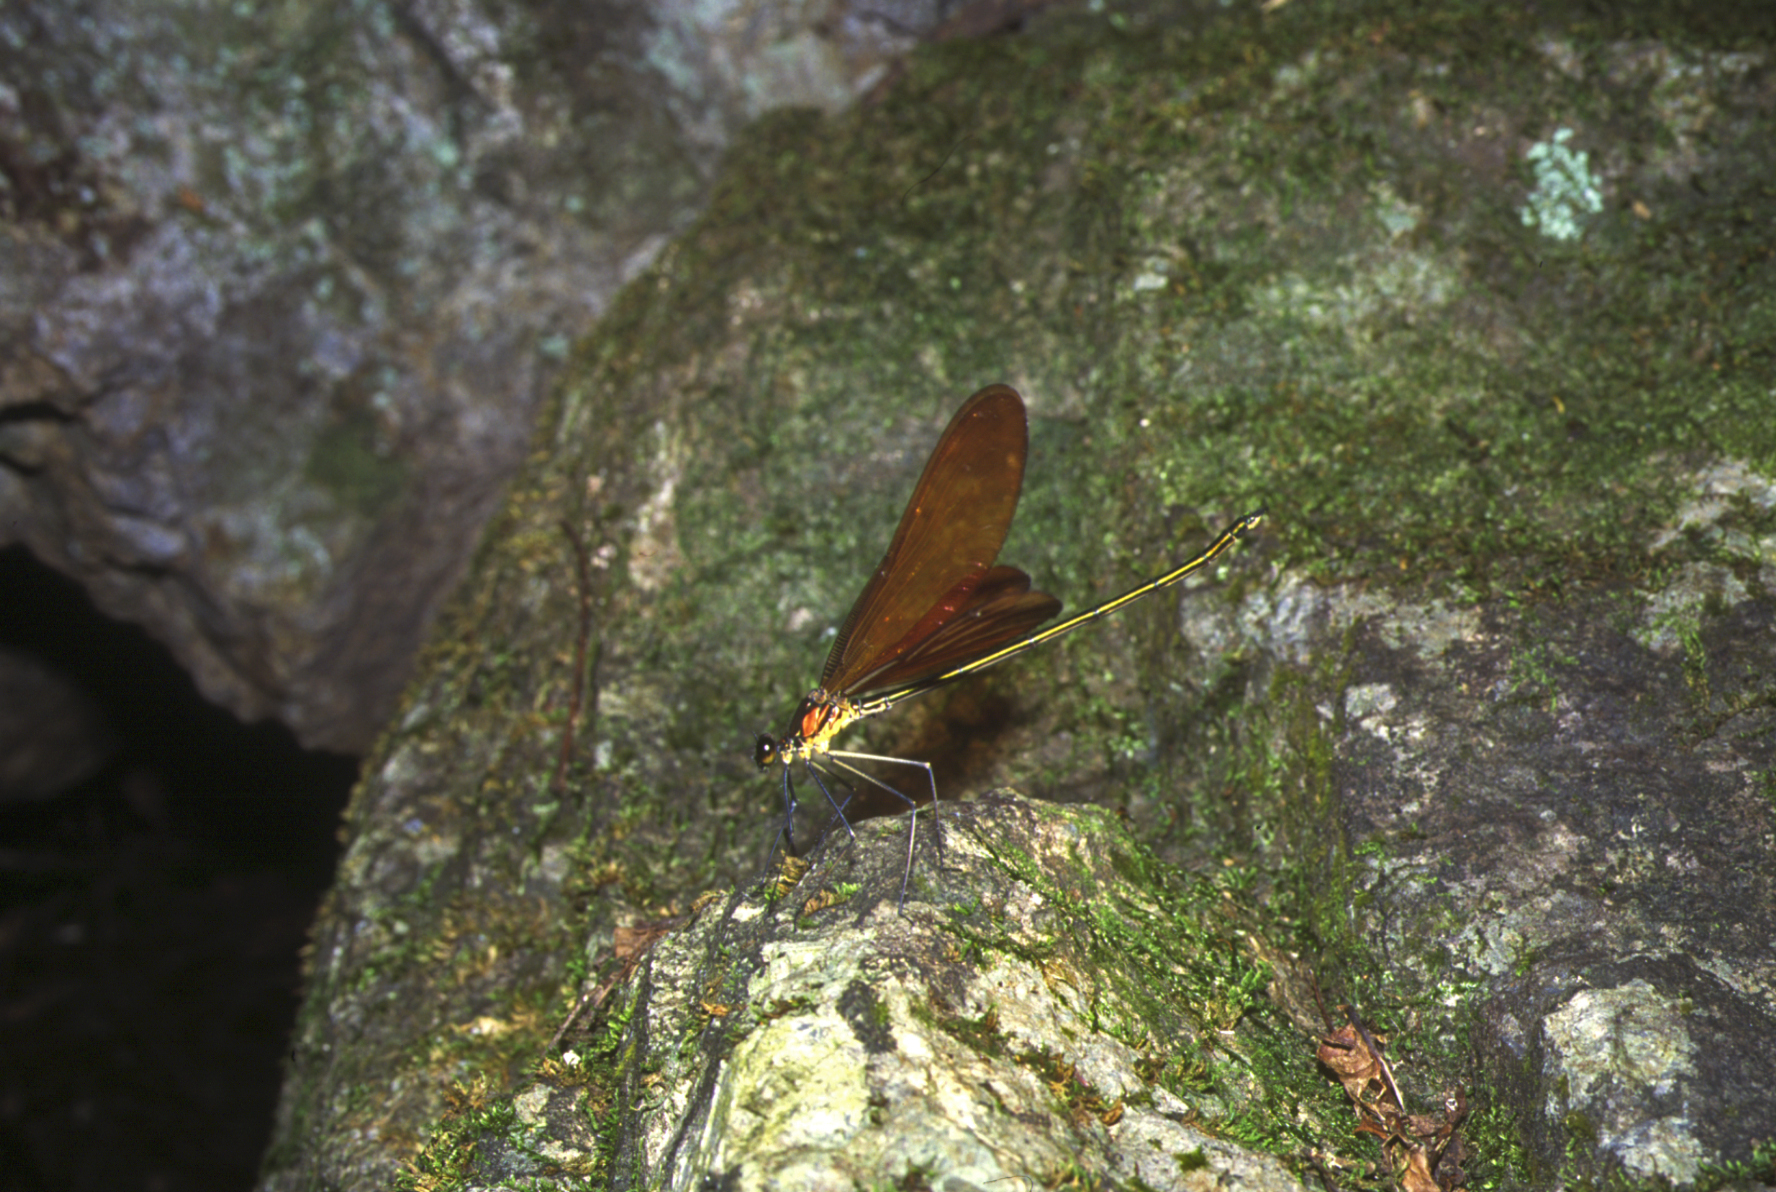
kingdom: Animalia
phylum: Arthropoda
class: Insecta
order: Odonata
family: Calopterygidae
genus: Calopteryx
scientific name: Calopteryx cornelia
